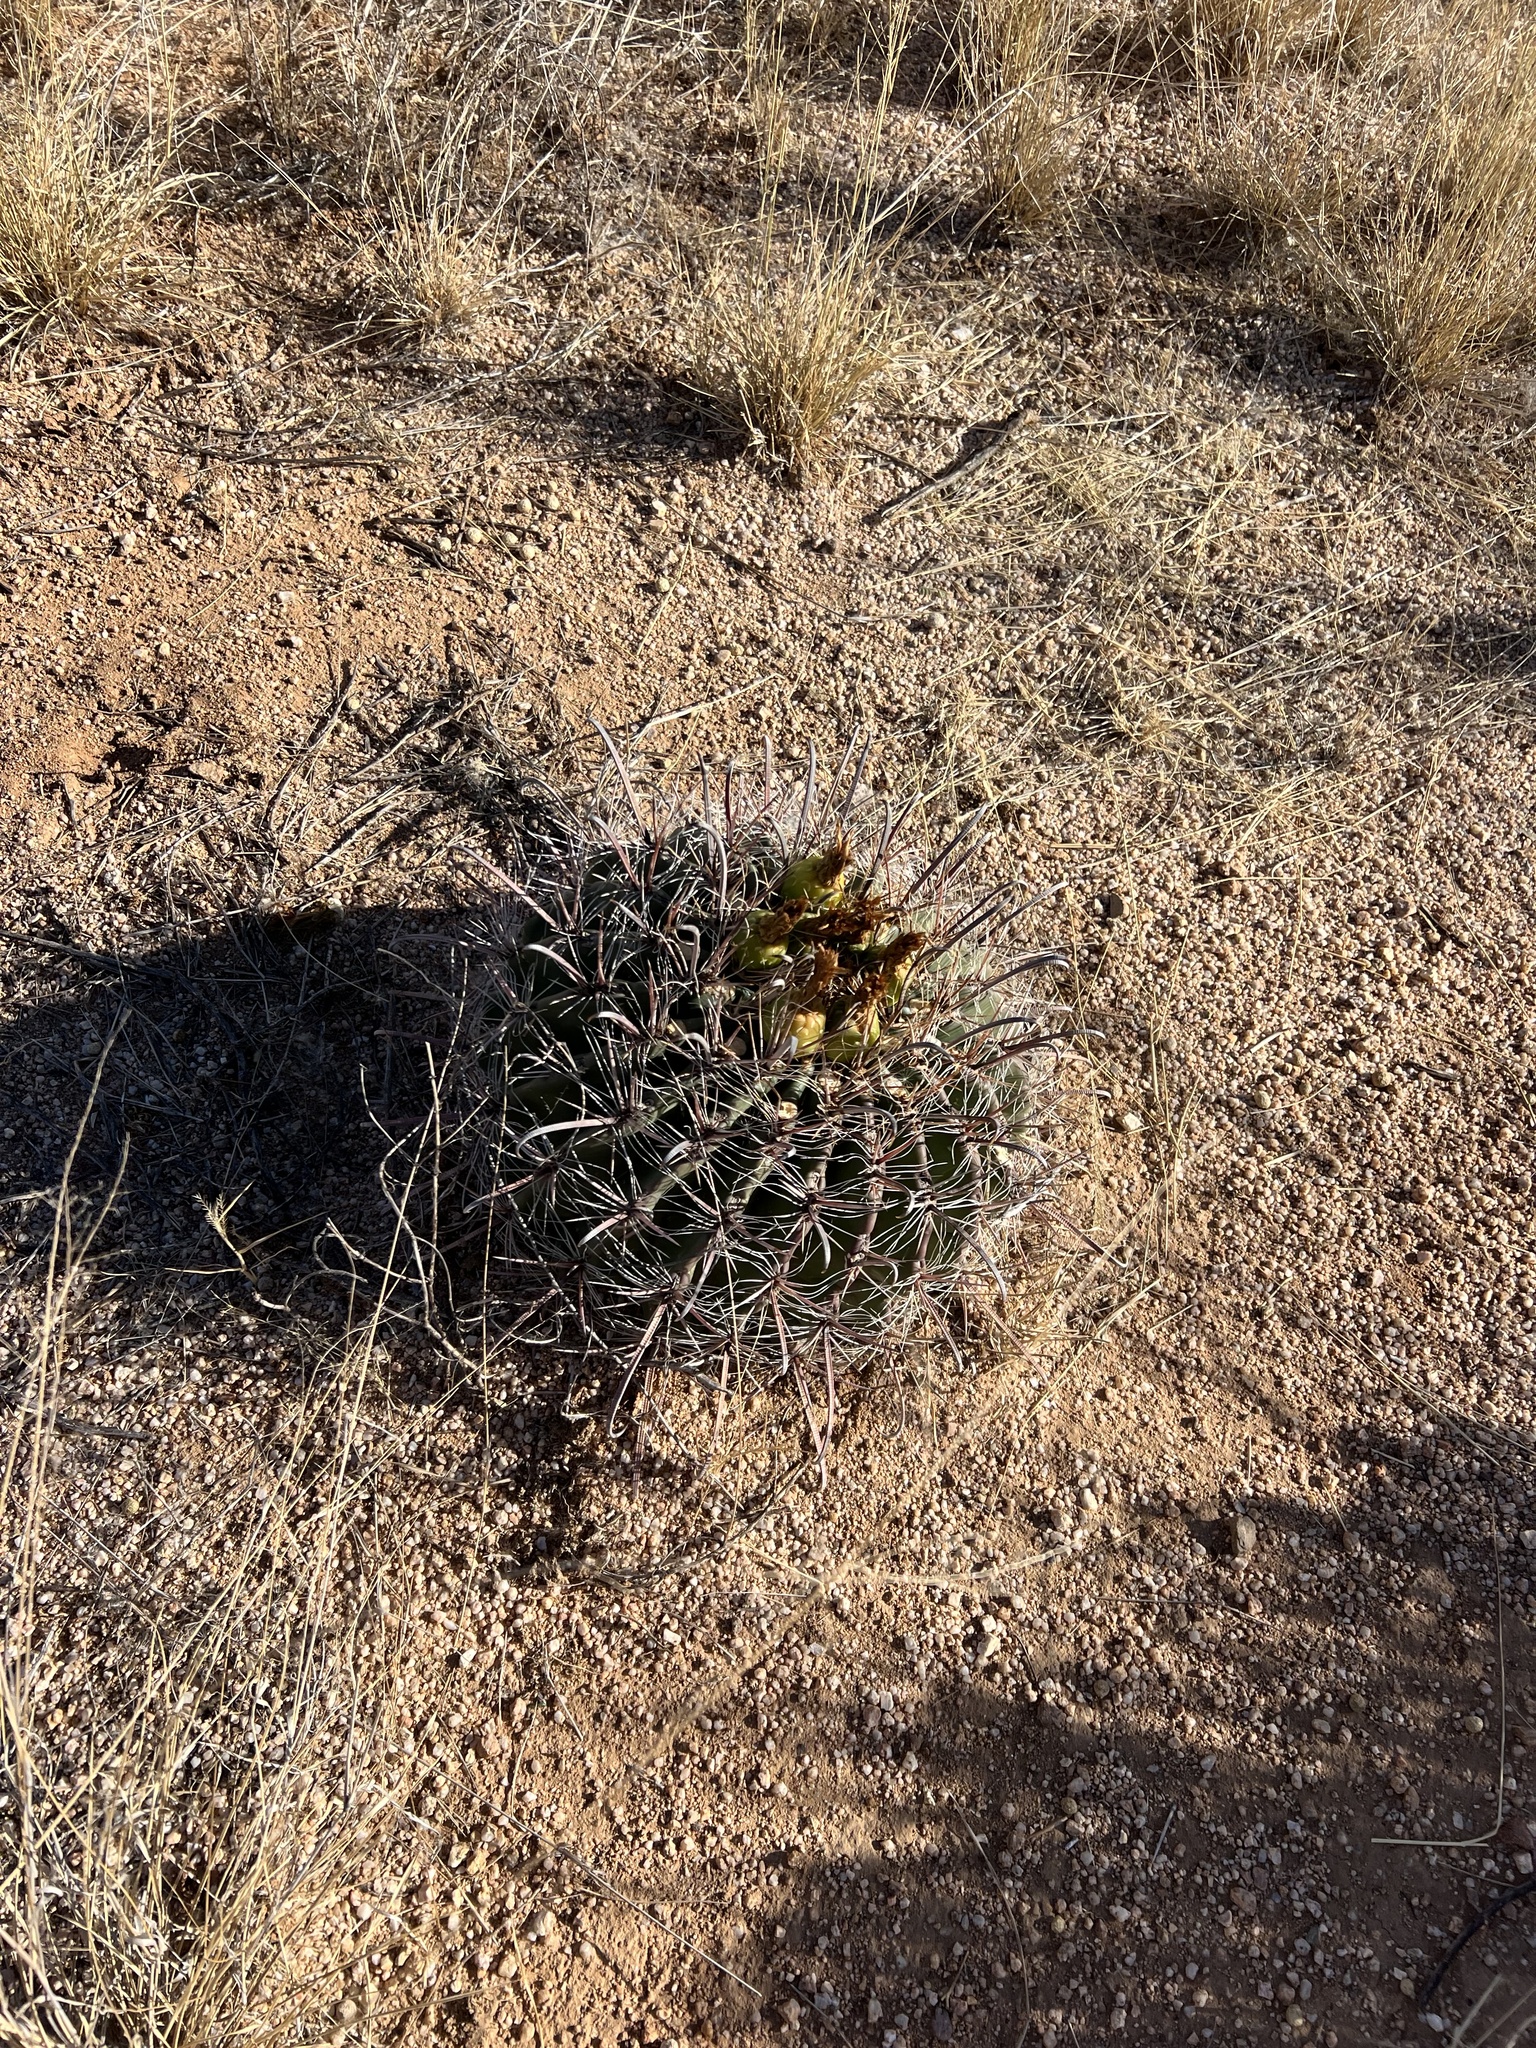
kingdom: Plantae
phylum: Tracheophyta
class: Magnoliopsida
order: Caryophyllales
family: Cactaceae
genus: Ferocactus
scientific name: Ferocactus wislizeni
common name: Candy barrel cactus
